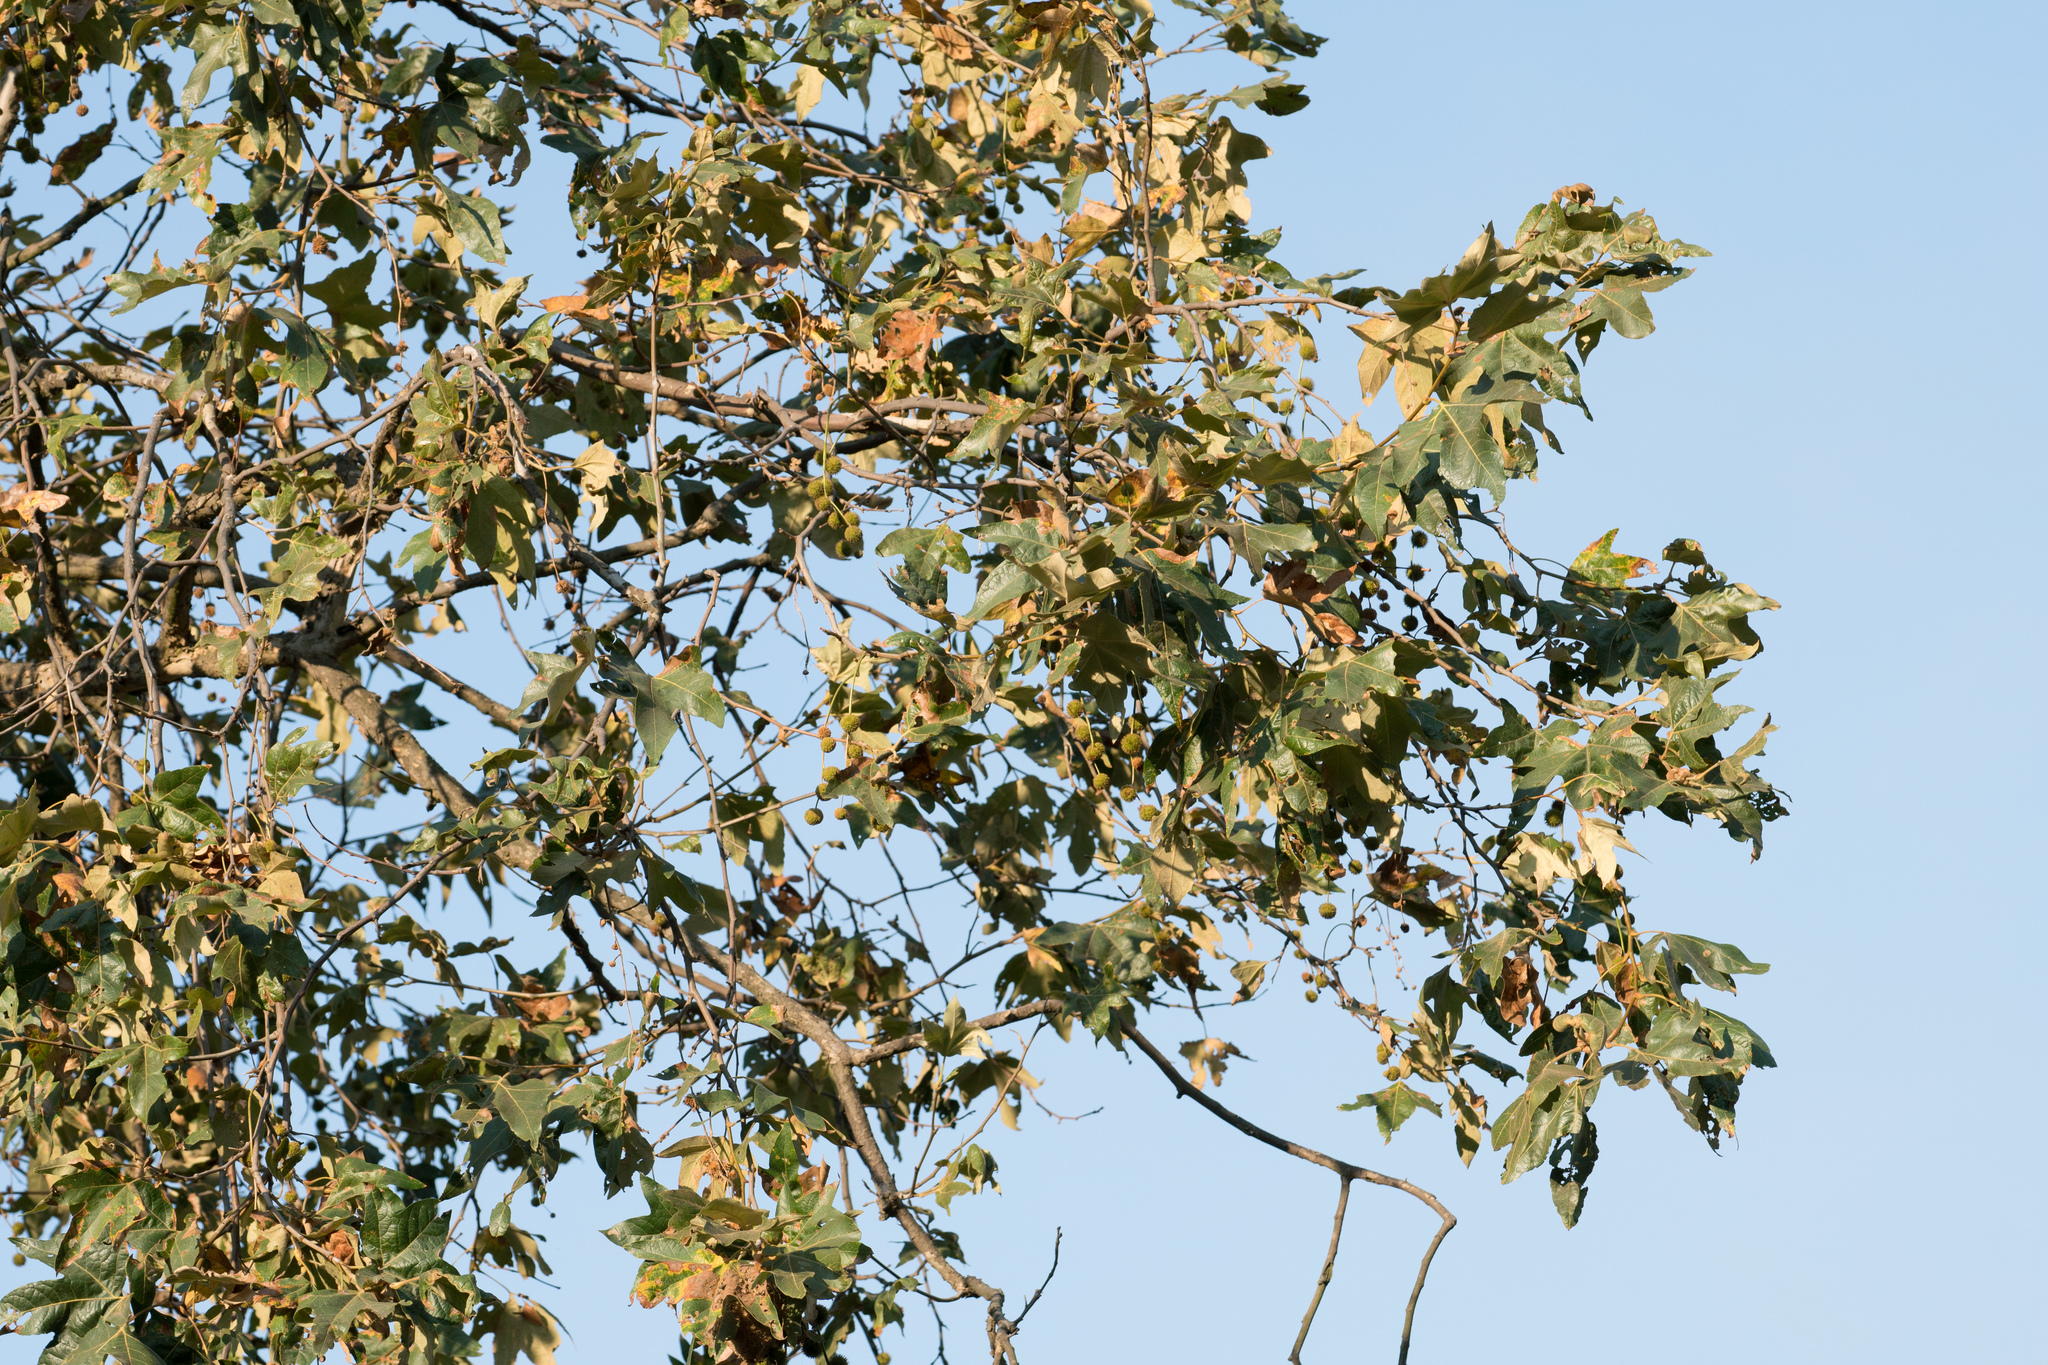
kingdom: Plantae
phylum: Tracheophyta
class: Magnoliopsida
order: Proteales
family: Platanaceae
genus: Platanus
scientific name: Platanus racemosa
